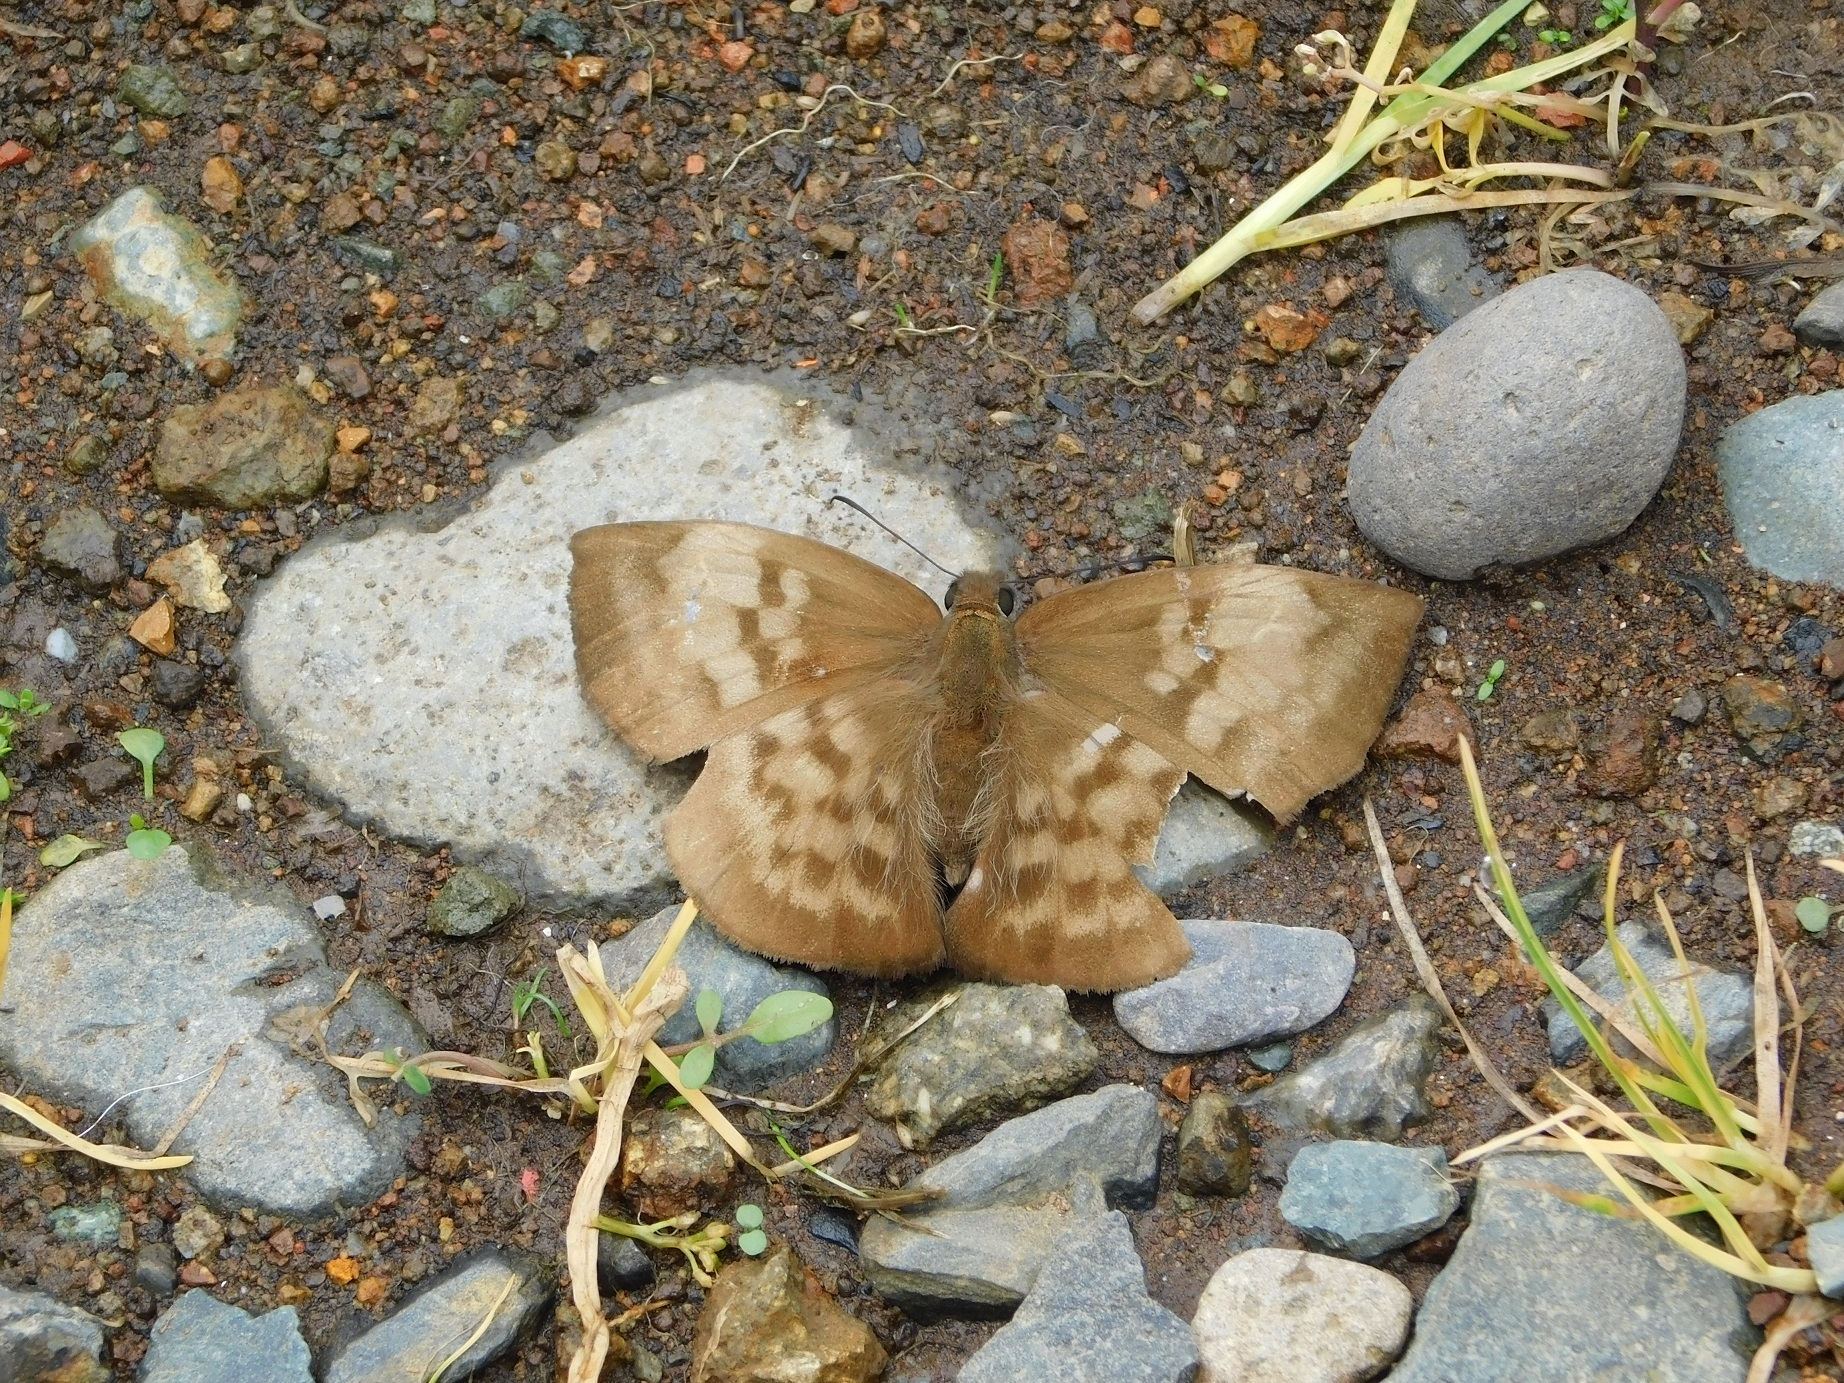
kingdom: Animalia
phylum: Arthropoda
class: Insecta
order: Lepidoptera
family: Hesperiidae
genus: Achlyodes
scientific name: Achlyodes pallida
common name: Pale sicklewing
